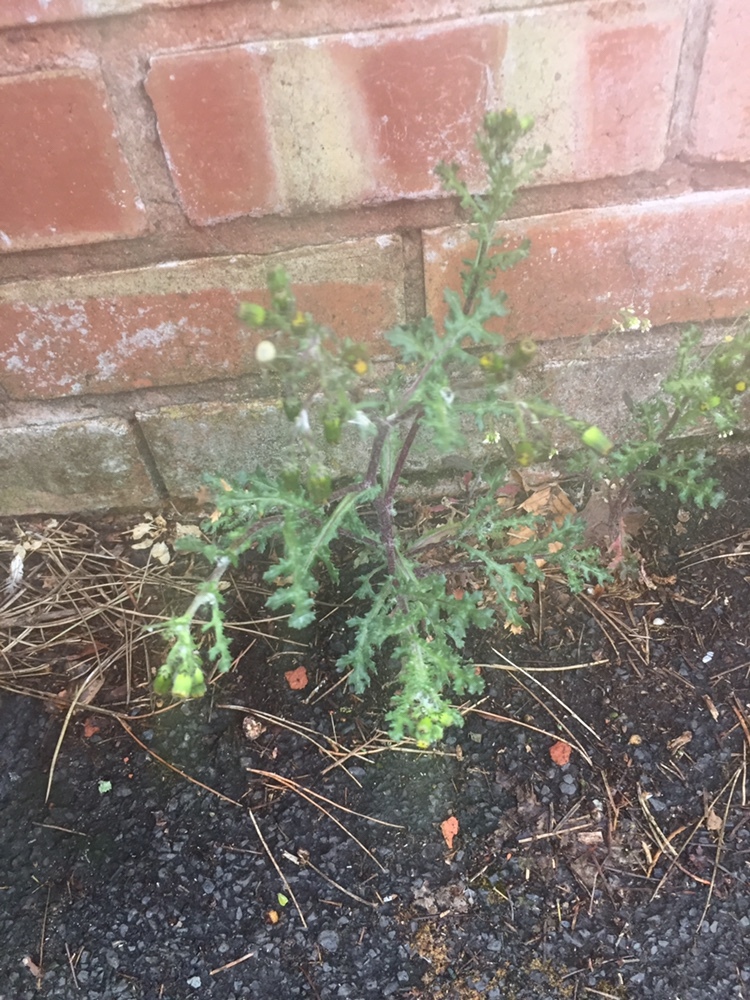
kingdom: Plantae
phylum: Tracheophyta
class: Magnoliopsida
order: Asterales
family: Asteraceae
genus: Senecio
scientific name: Senecio vulgaris
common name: Old-man-in-the-spring
